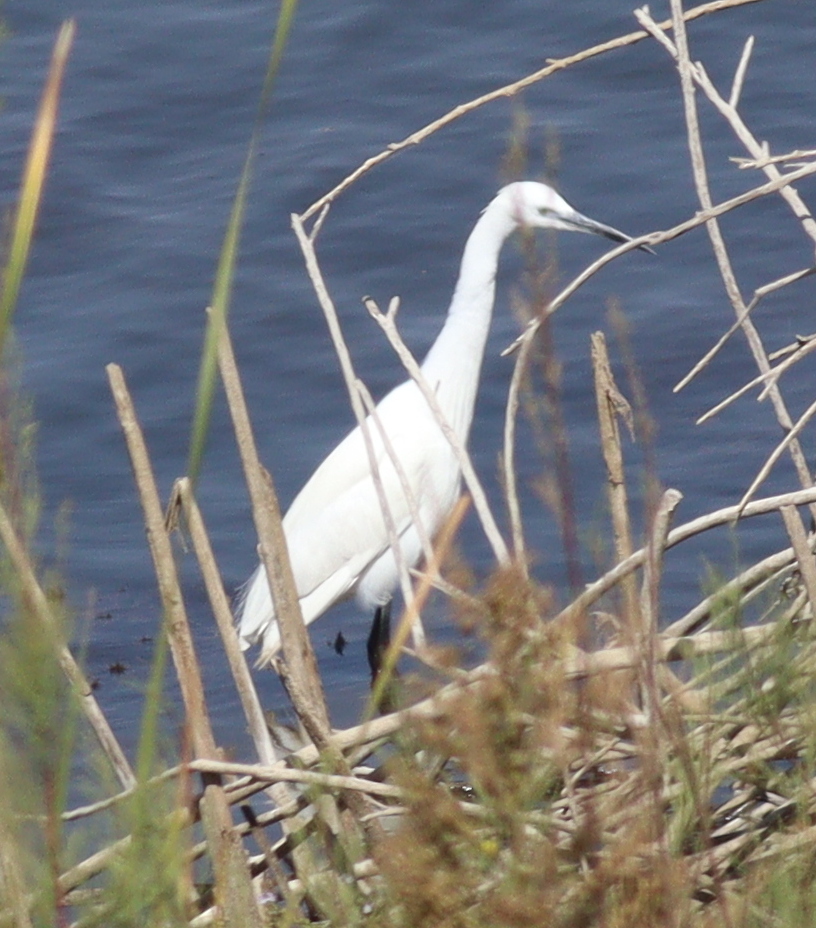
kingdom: Animalia
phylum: Chordata
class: Aves
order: Pelecaniformes
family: Ardeidae
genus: Egretta
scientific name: Egretta garzetta
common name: Little egret
